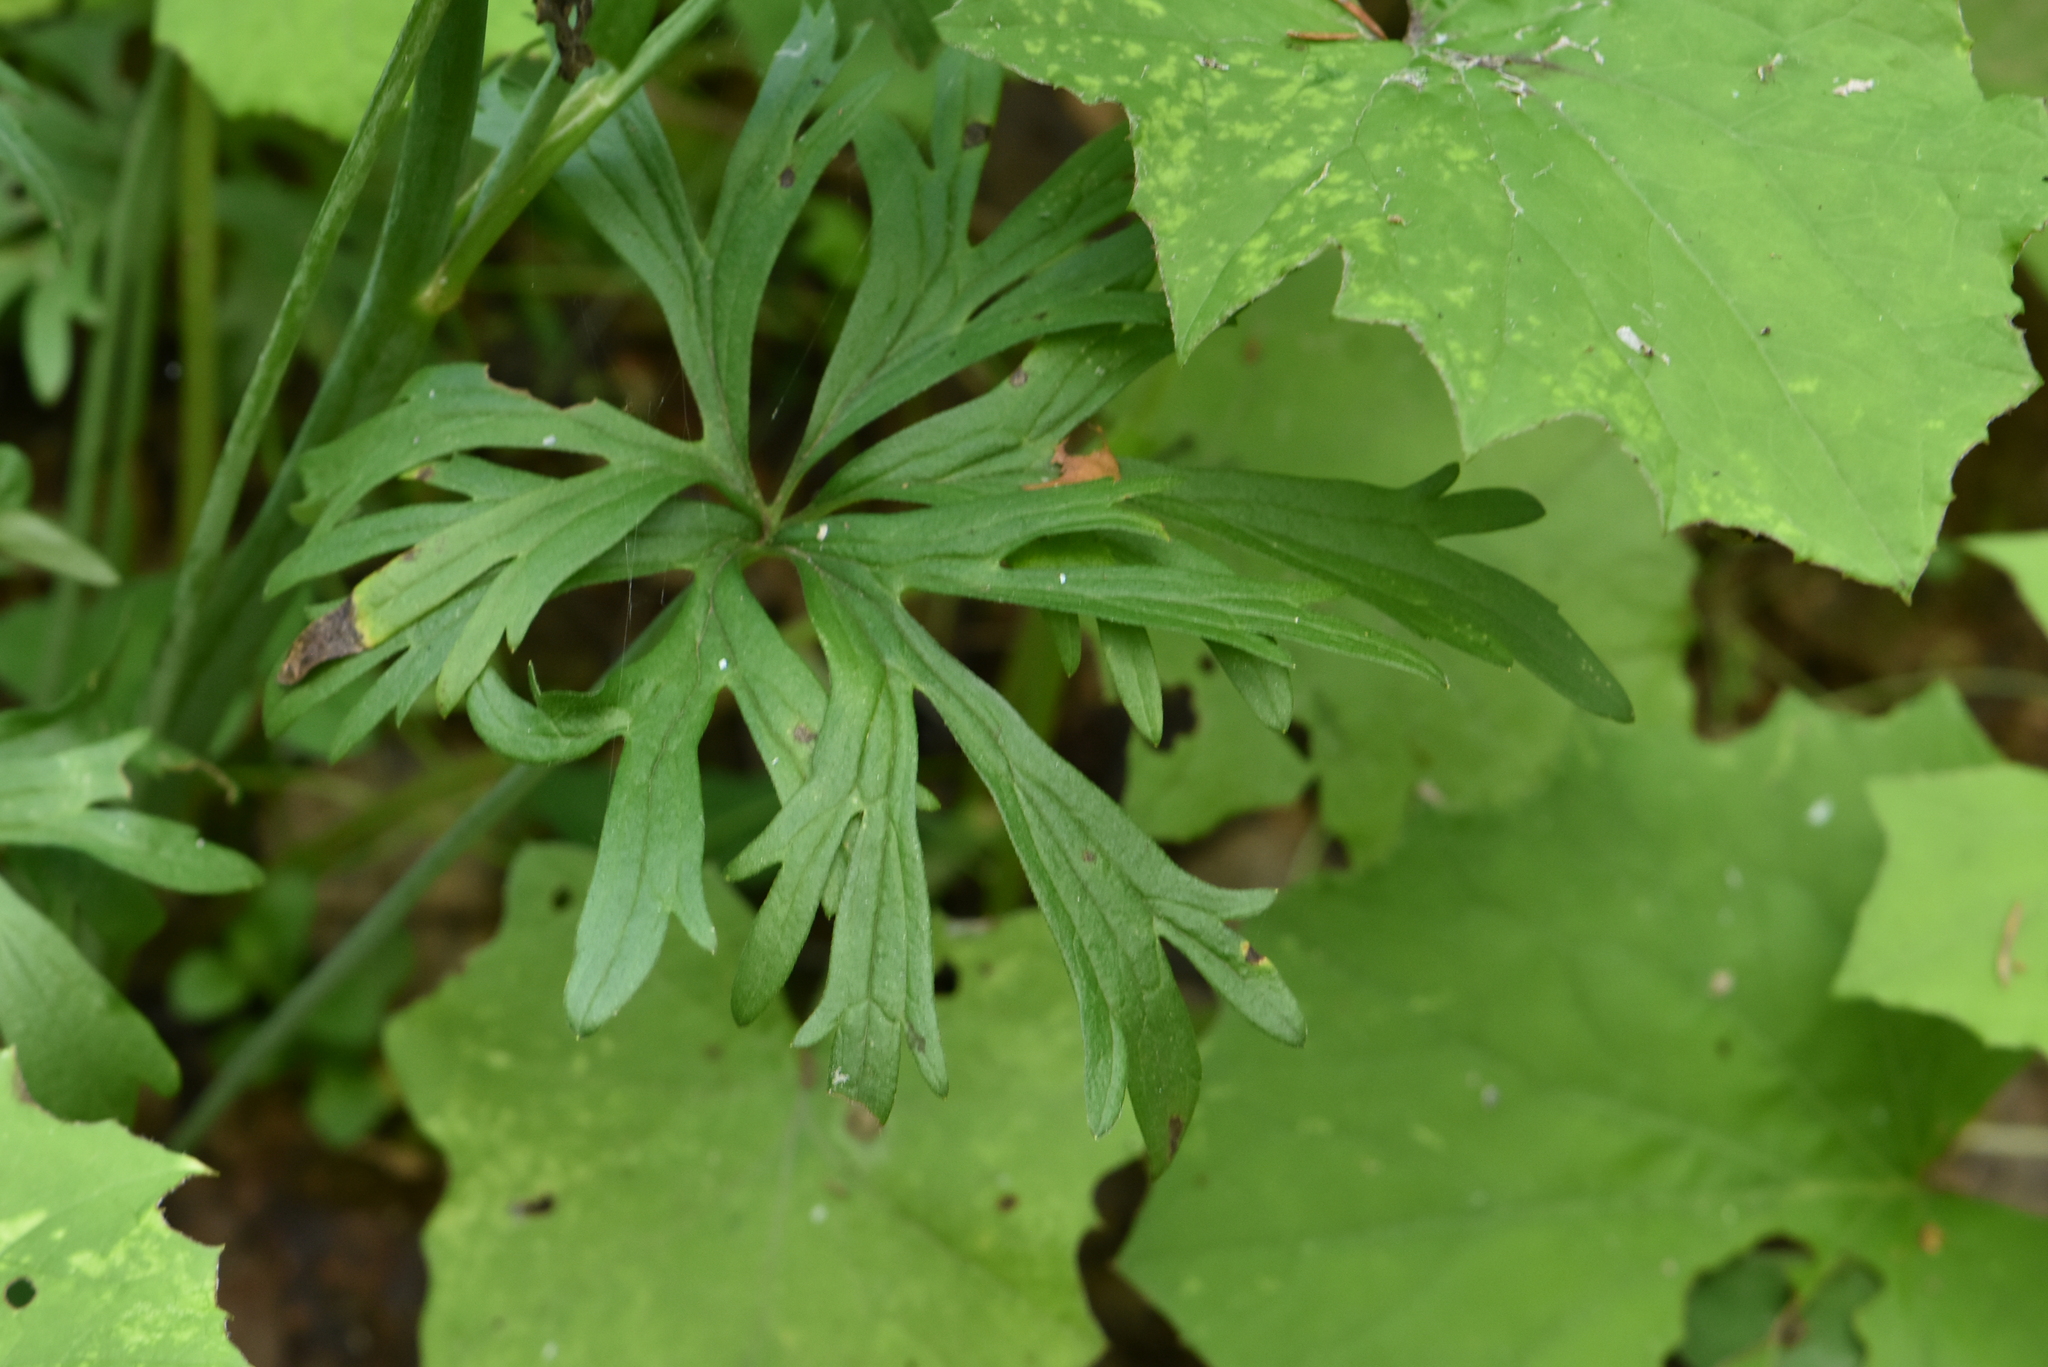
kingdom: Plantae
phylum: Tracheophyta
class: Magnoliopsida
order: Ranunculales
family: Ranunculaceae
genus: Ranunculus
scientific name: Ranunculus acris
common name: Meadow buttercup
